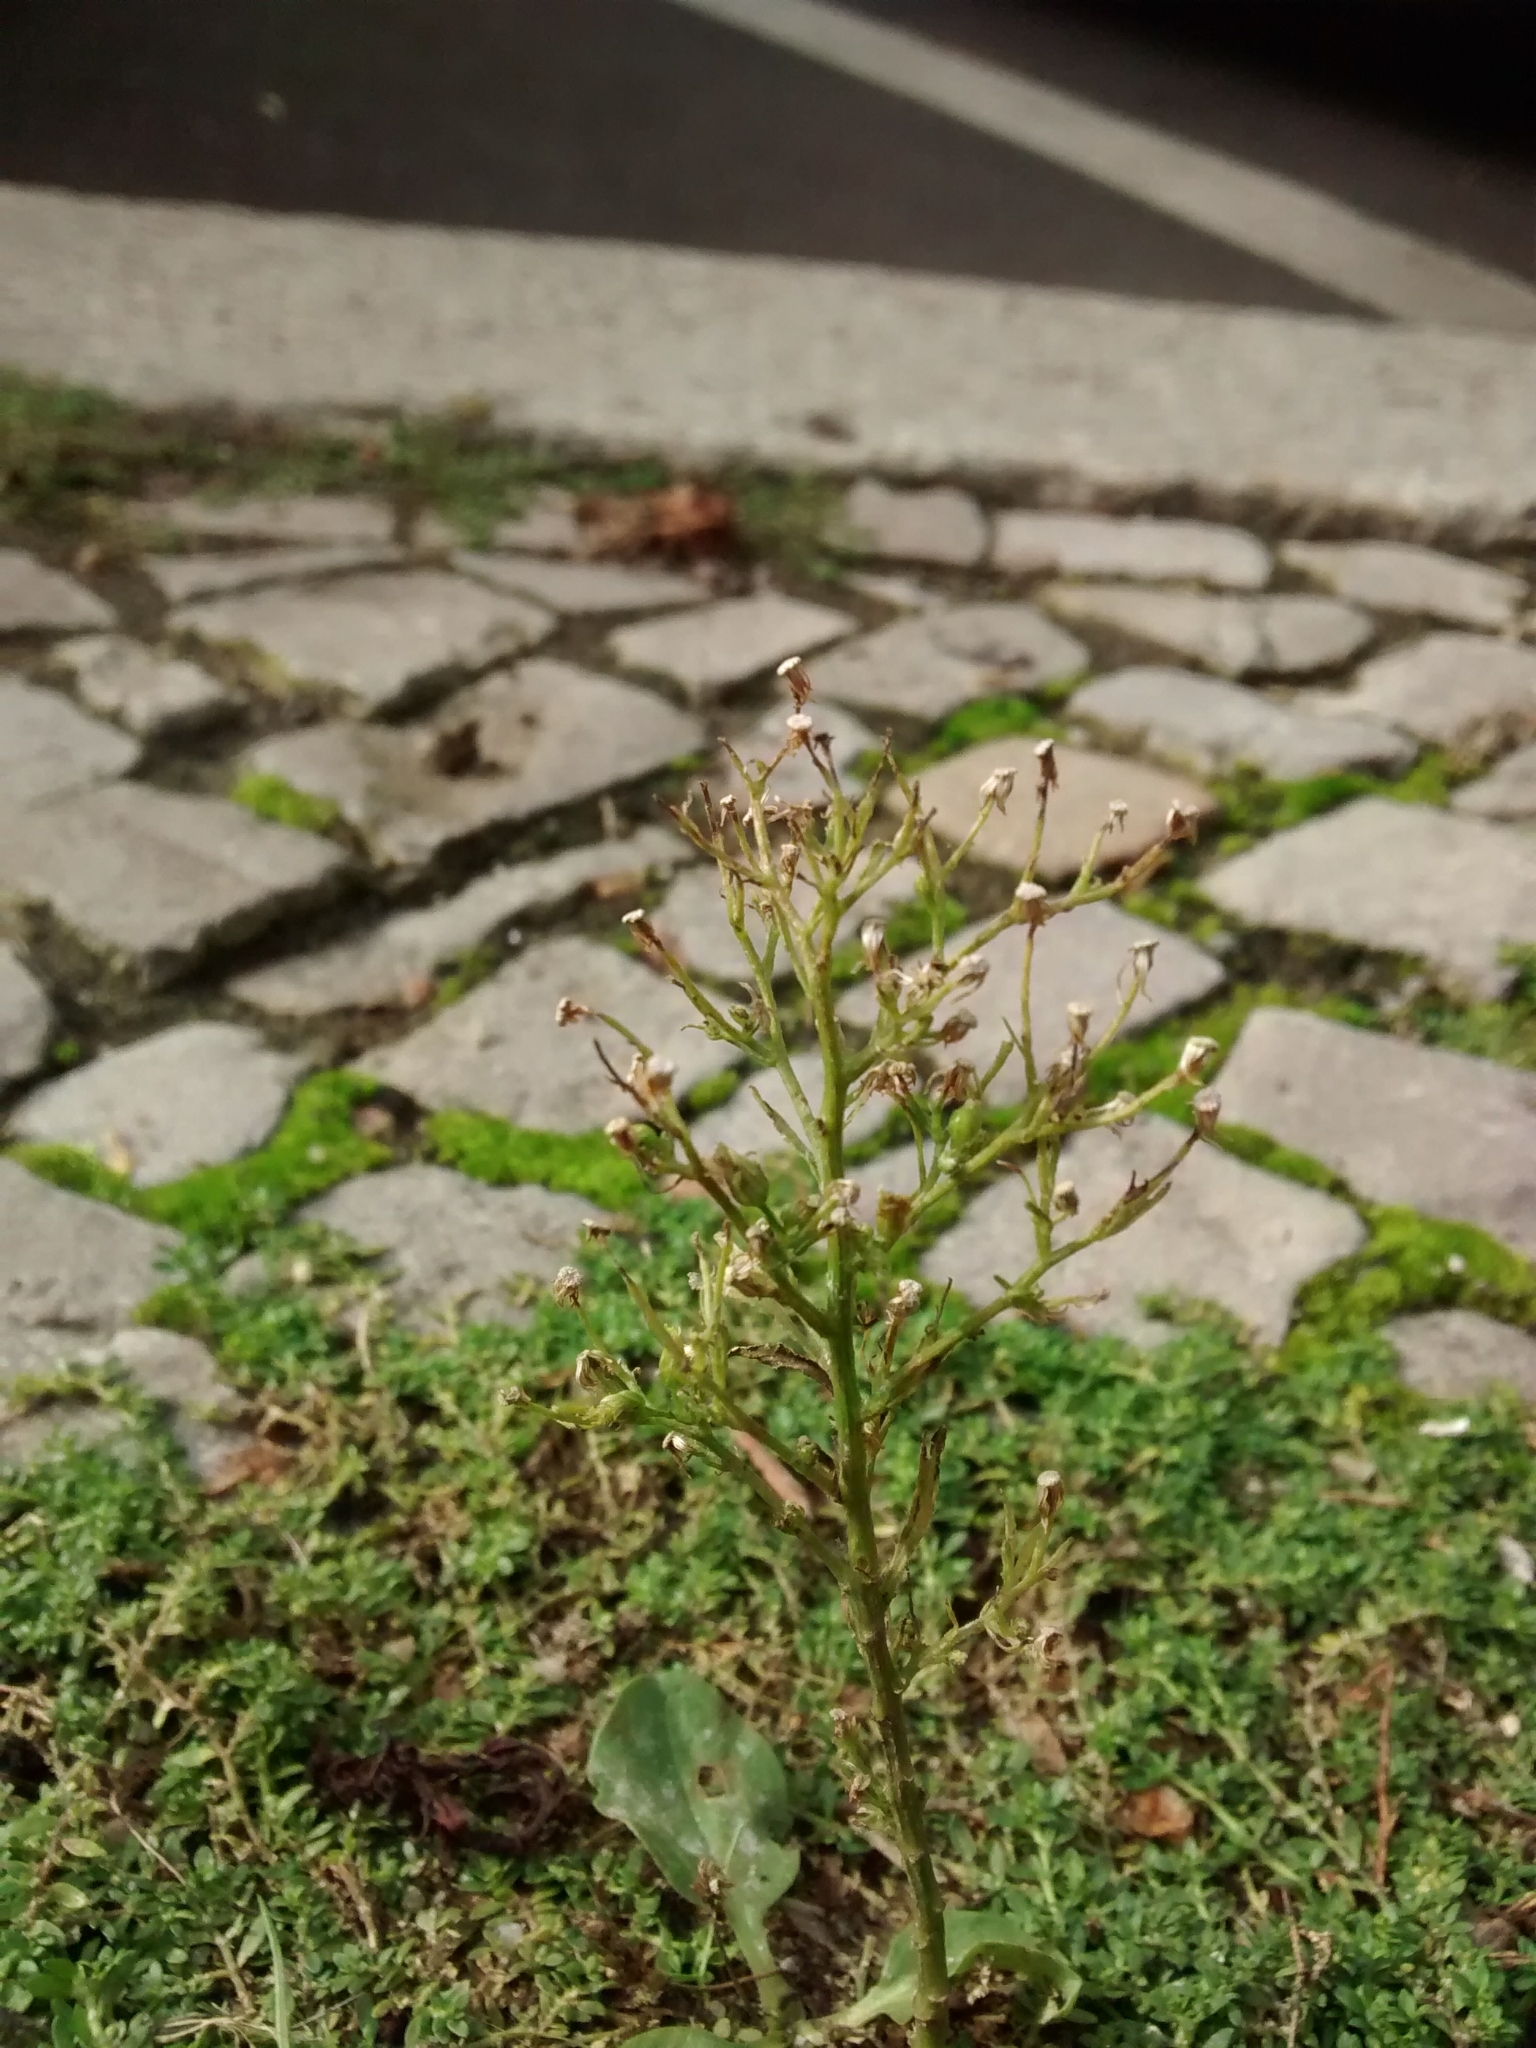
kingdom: Plantae
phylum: Tracheophyta
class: Magnoliopsida
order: Asterales
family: Asteraceae
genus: Erigeron
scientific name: Erigeron canadensis
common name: Canadian fleabane
